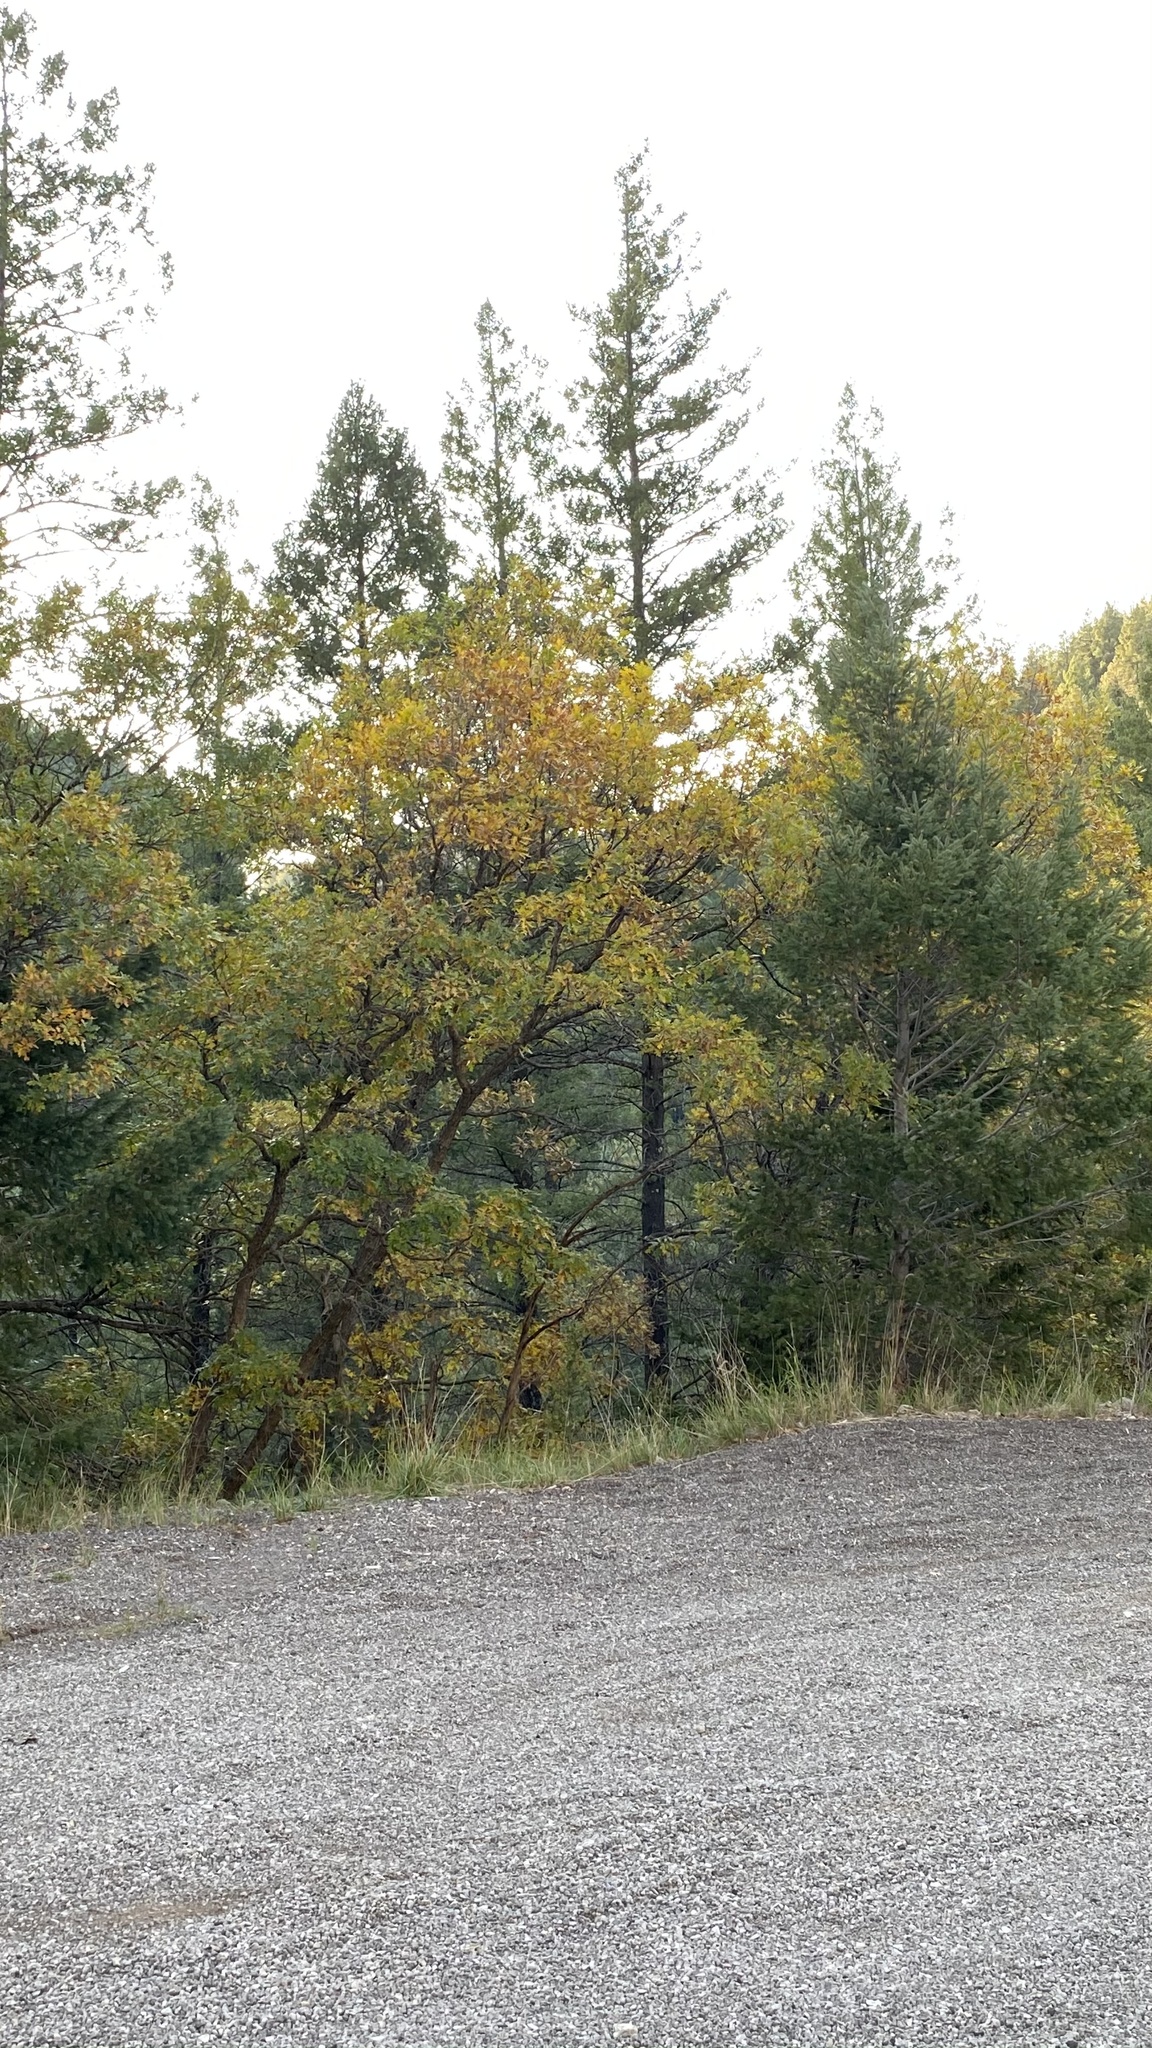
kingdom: Plantae
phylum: Tracheophyta
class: Magnoliopsida
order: Fagales
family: Fagaceae
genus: Quercus
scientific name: Quercus gambelii
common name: Gambel oak
